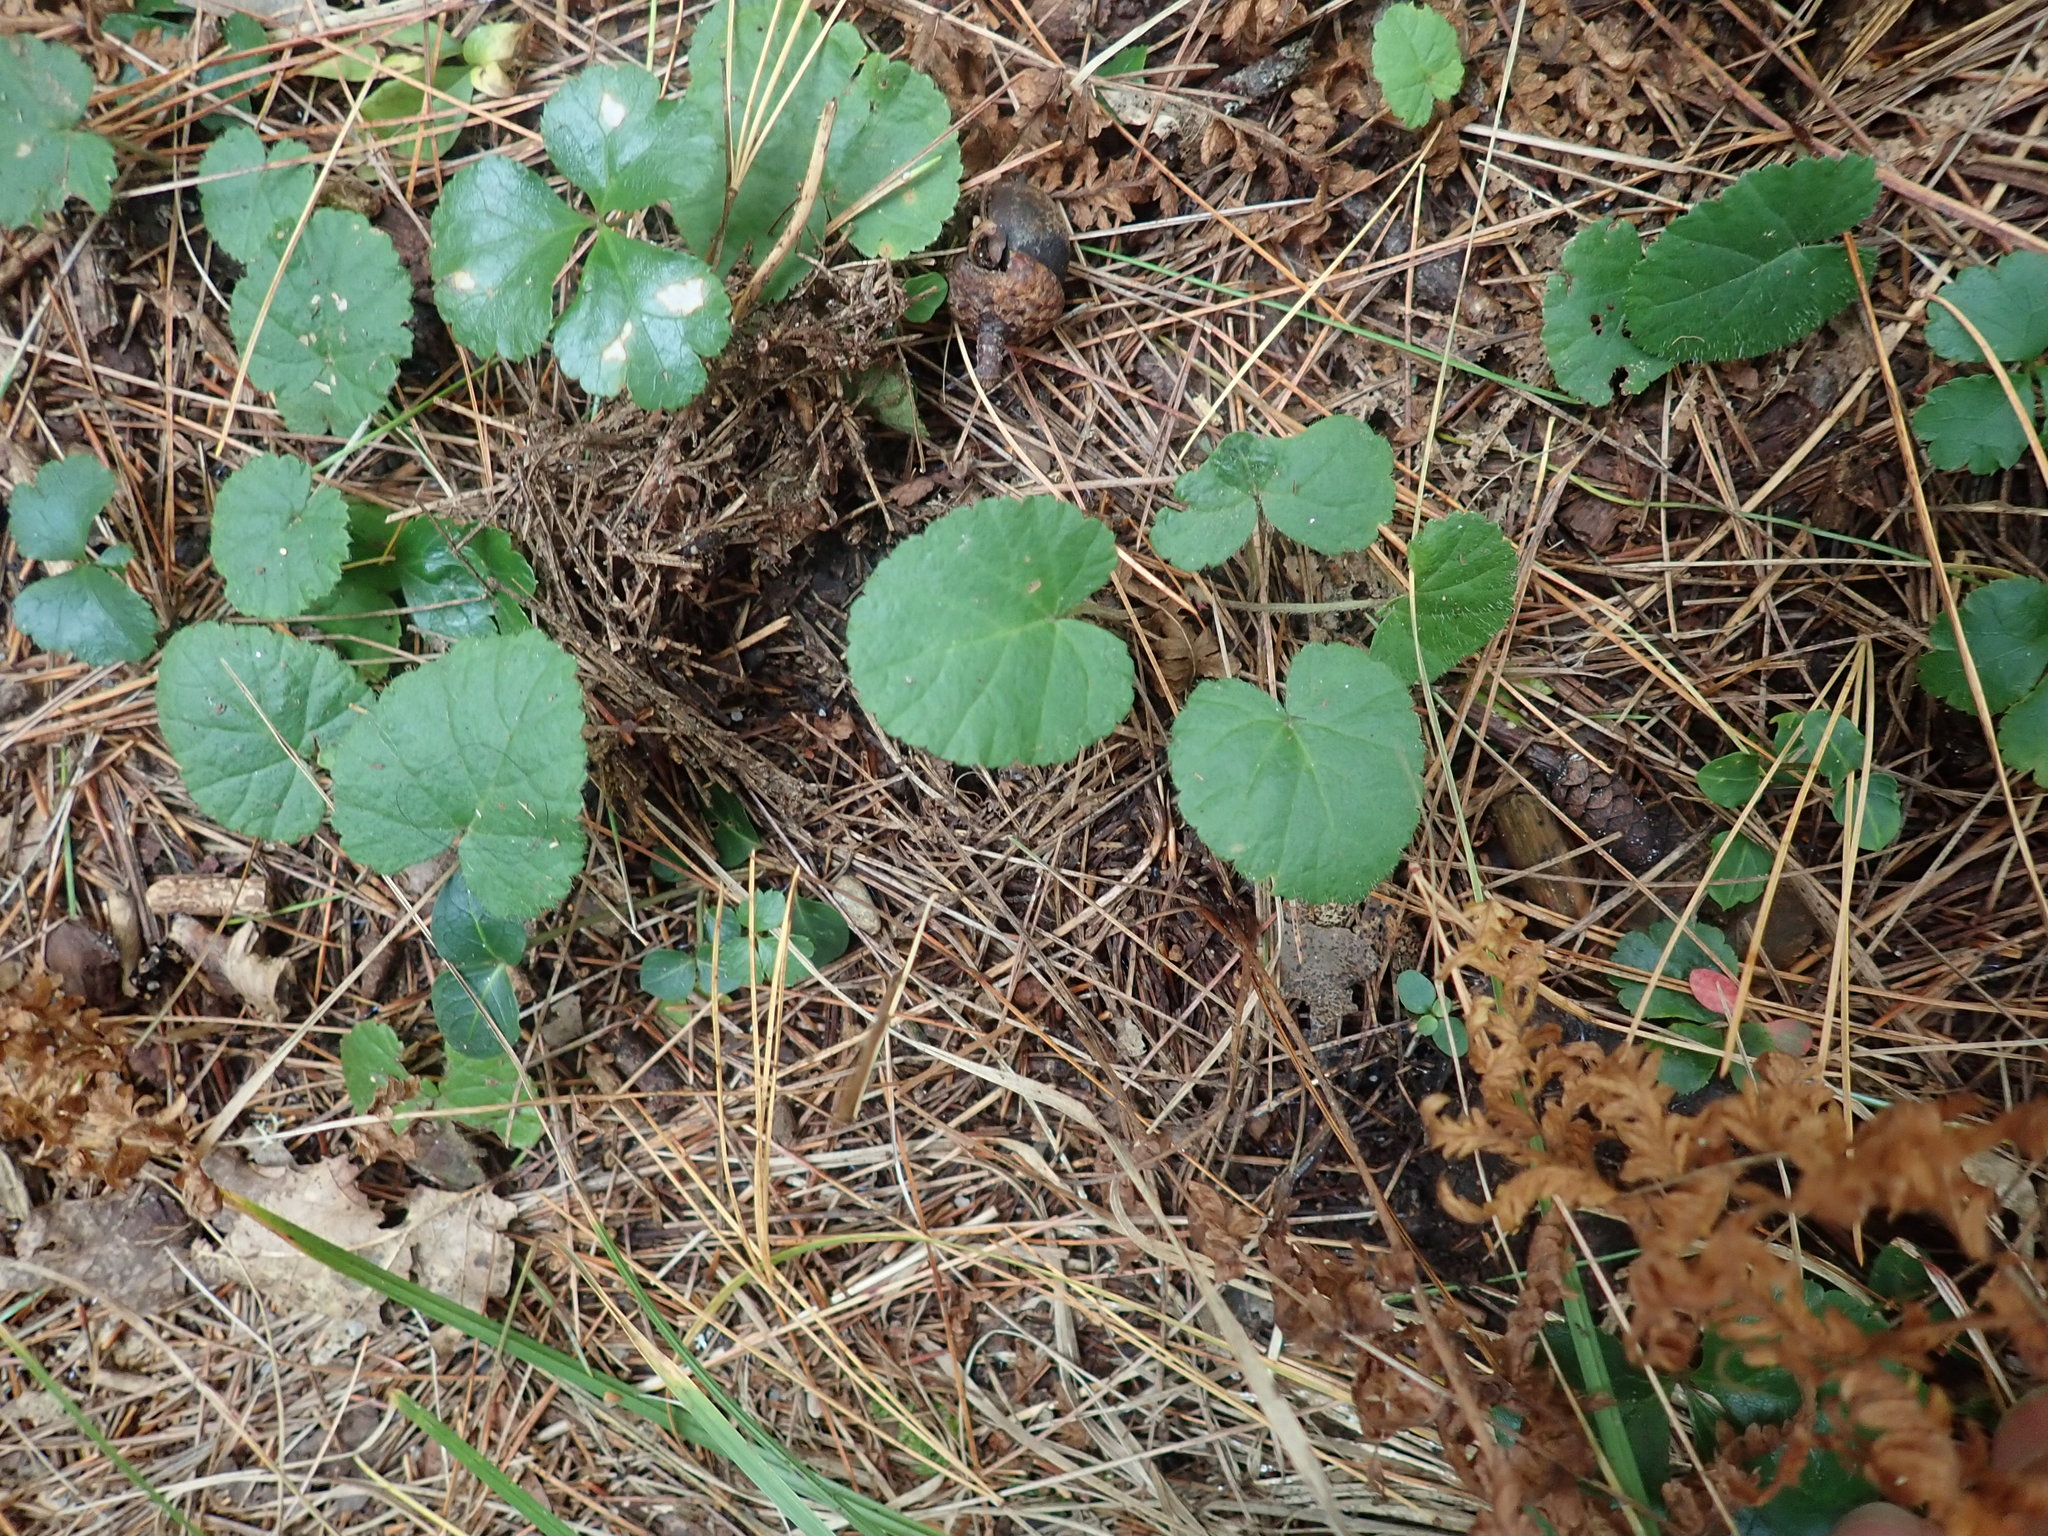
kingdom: Plantae
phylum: Tracheophyta
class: Magnoliopsida
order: Rosales
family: Rosaceae
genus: Dalibarda
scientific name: Dalibarda repens
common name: Dewdrop
